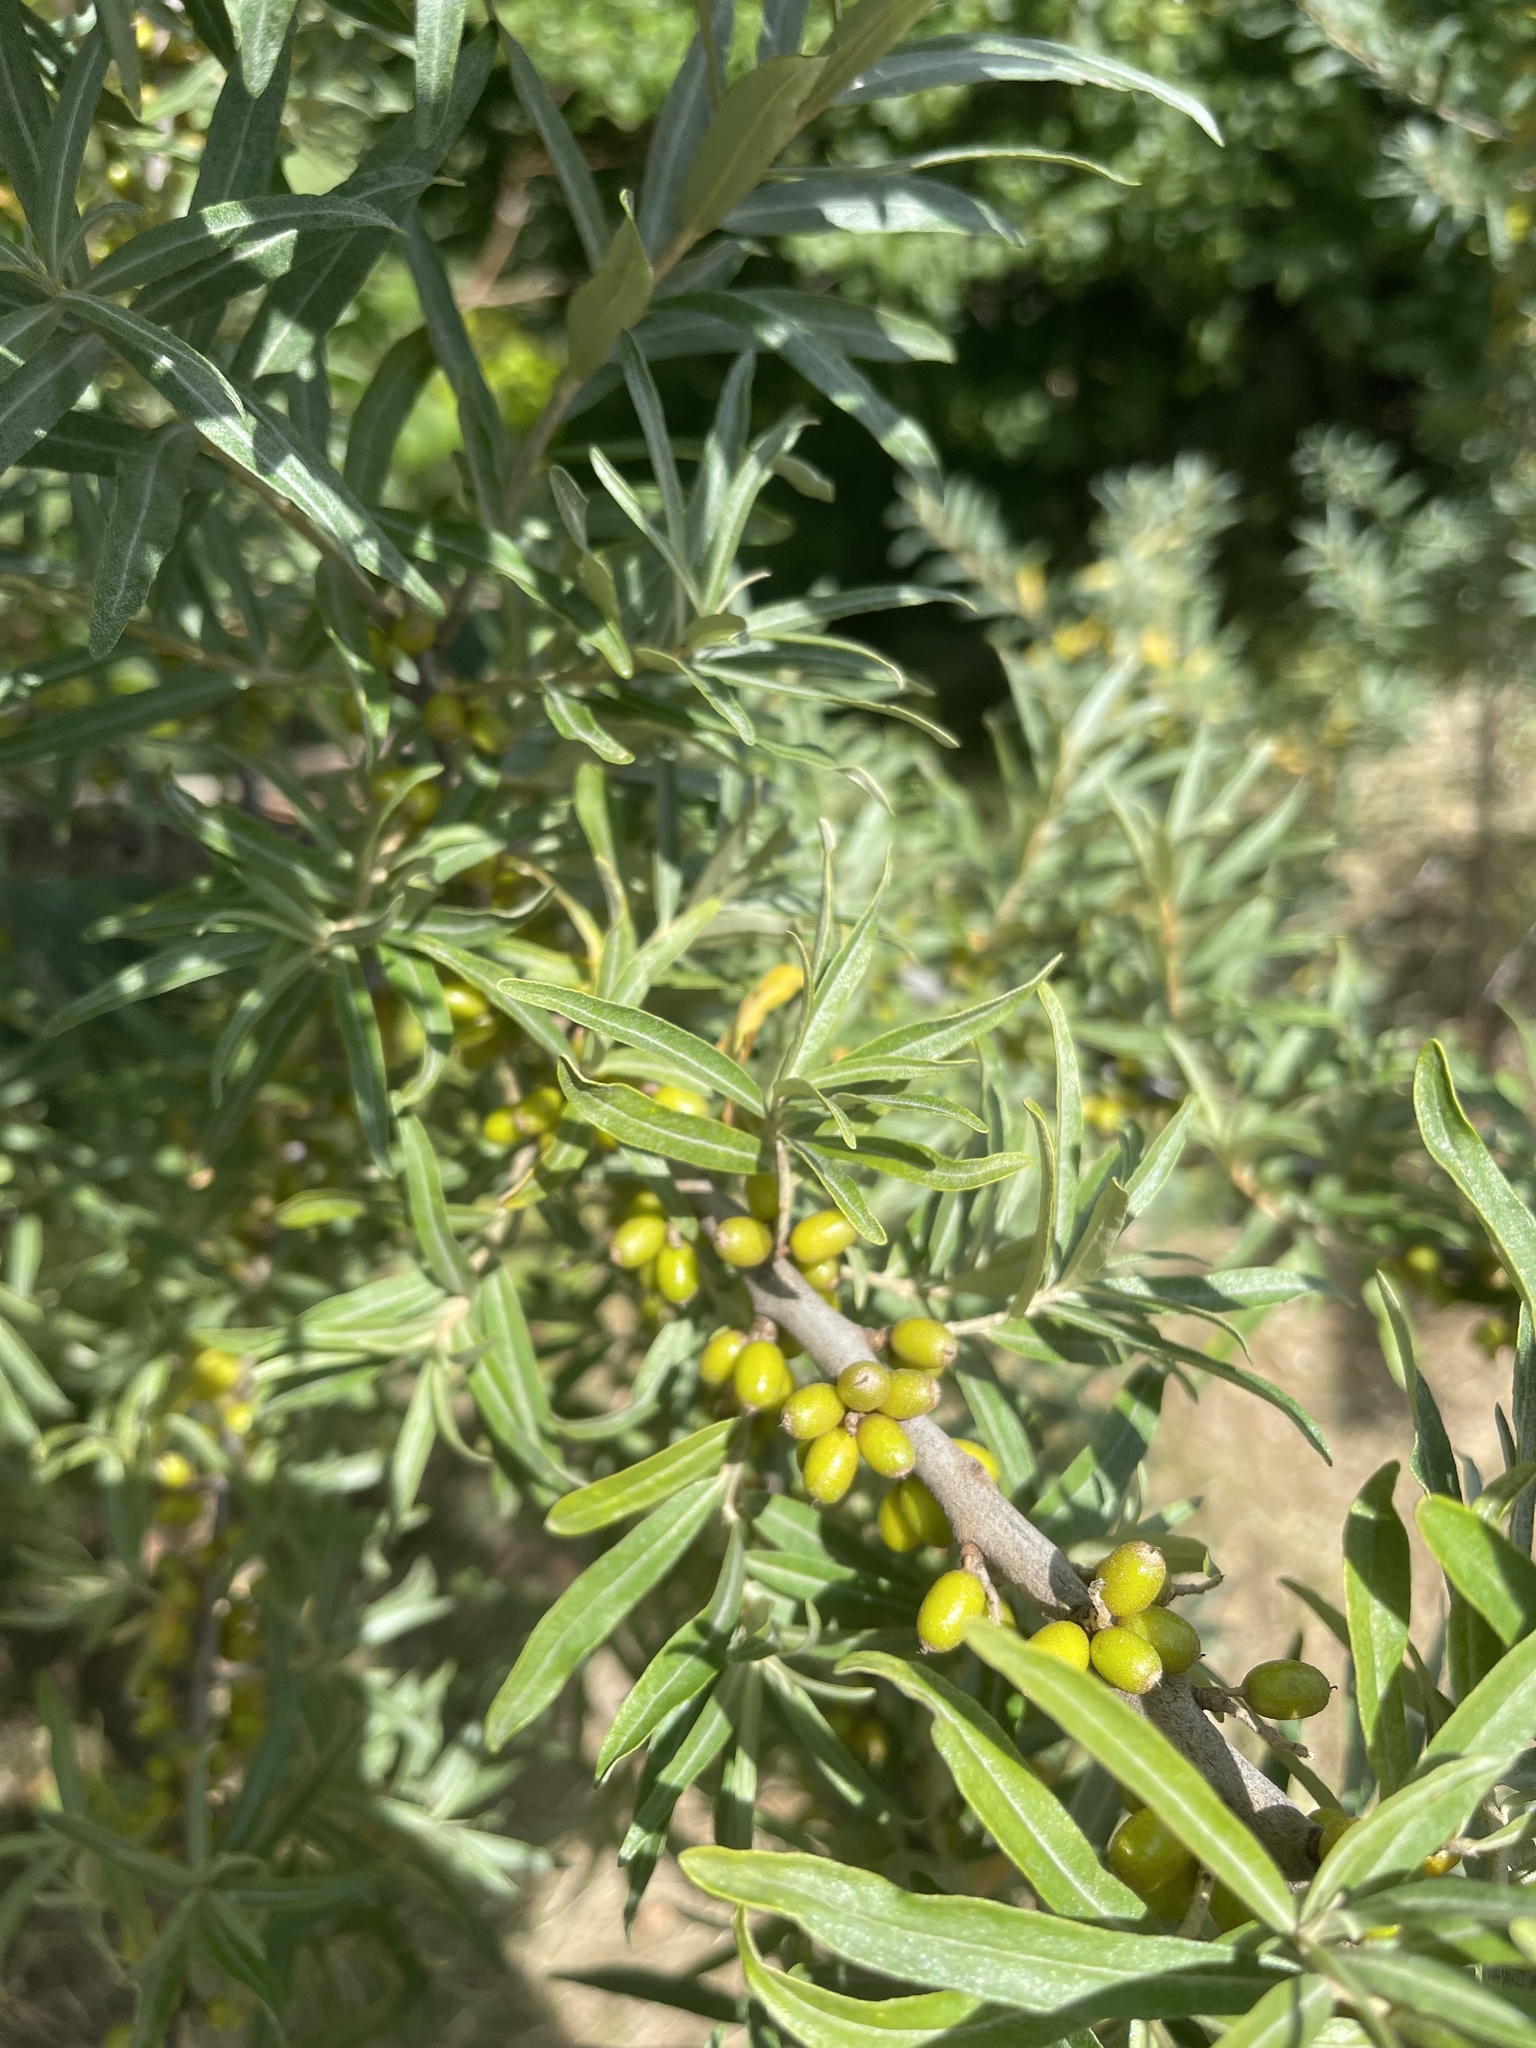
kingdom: Plantae
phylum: Tracheophyta
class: Magnoliopsida
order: Rosales
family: Elaeagnaceae
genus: Hippophae
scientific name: Hippophae rhamnoides
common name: Sea-buckthorn
